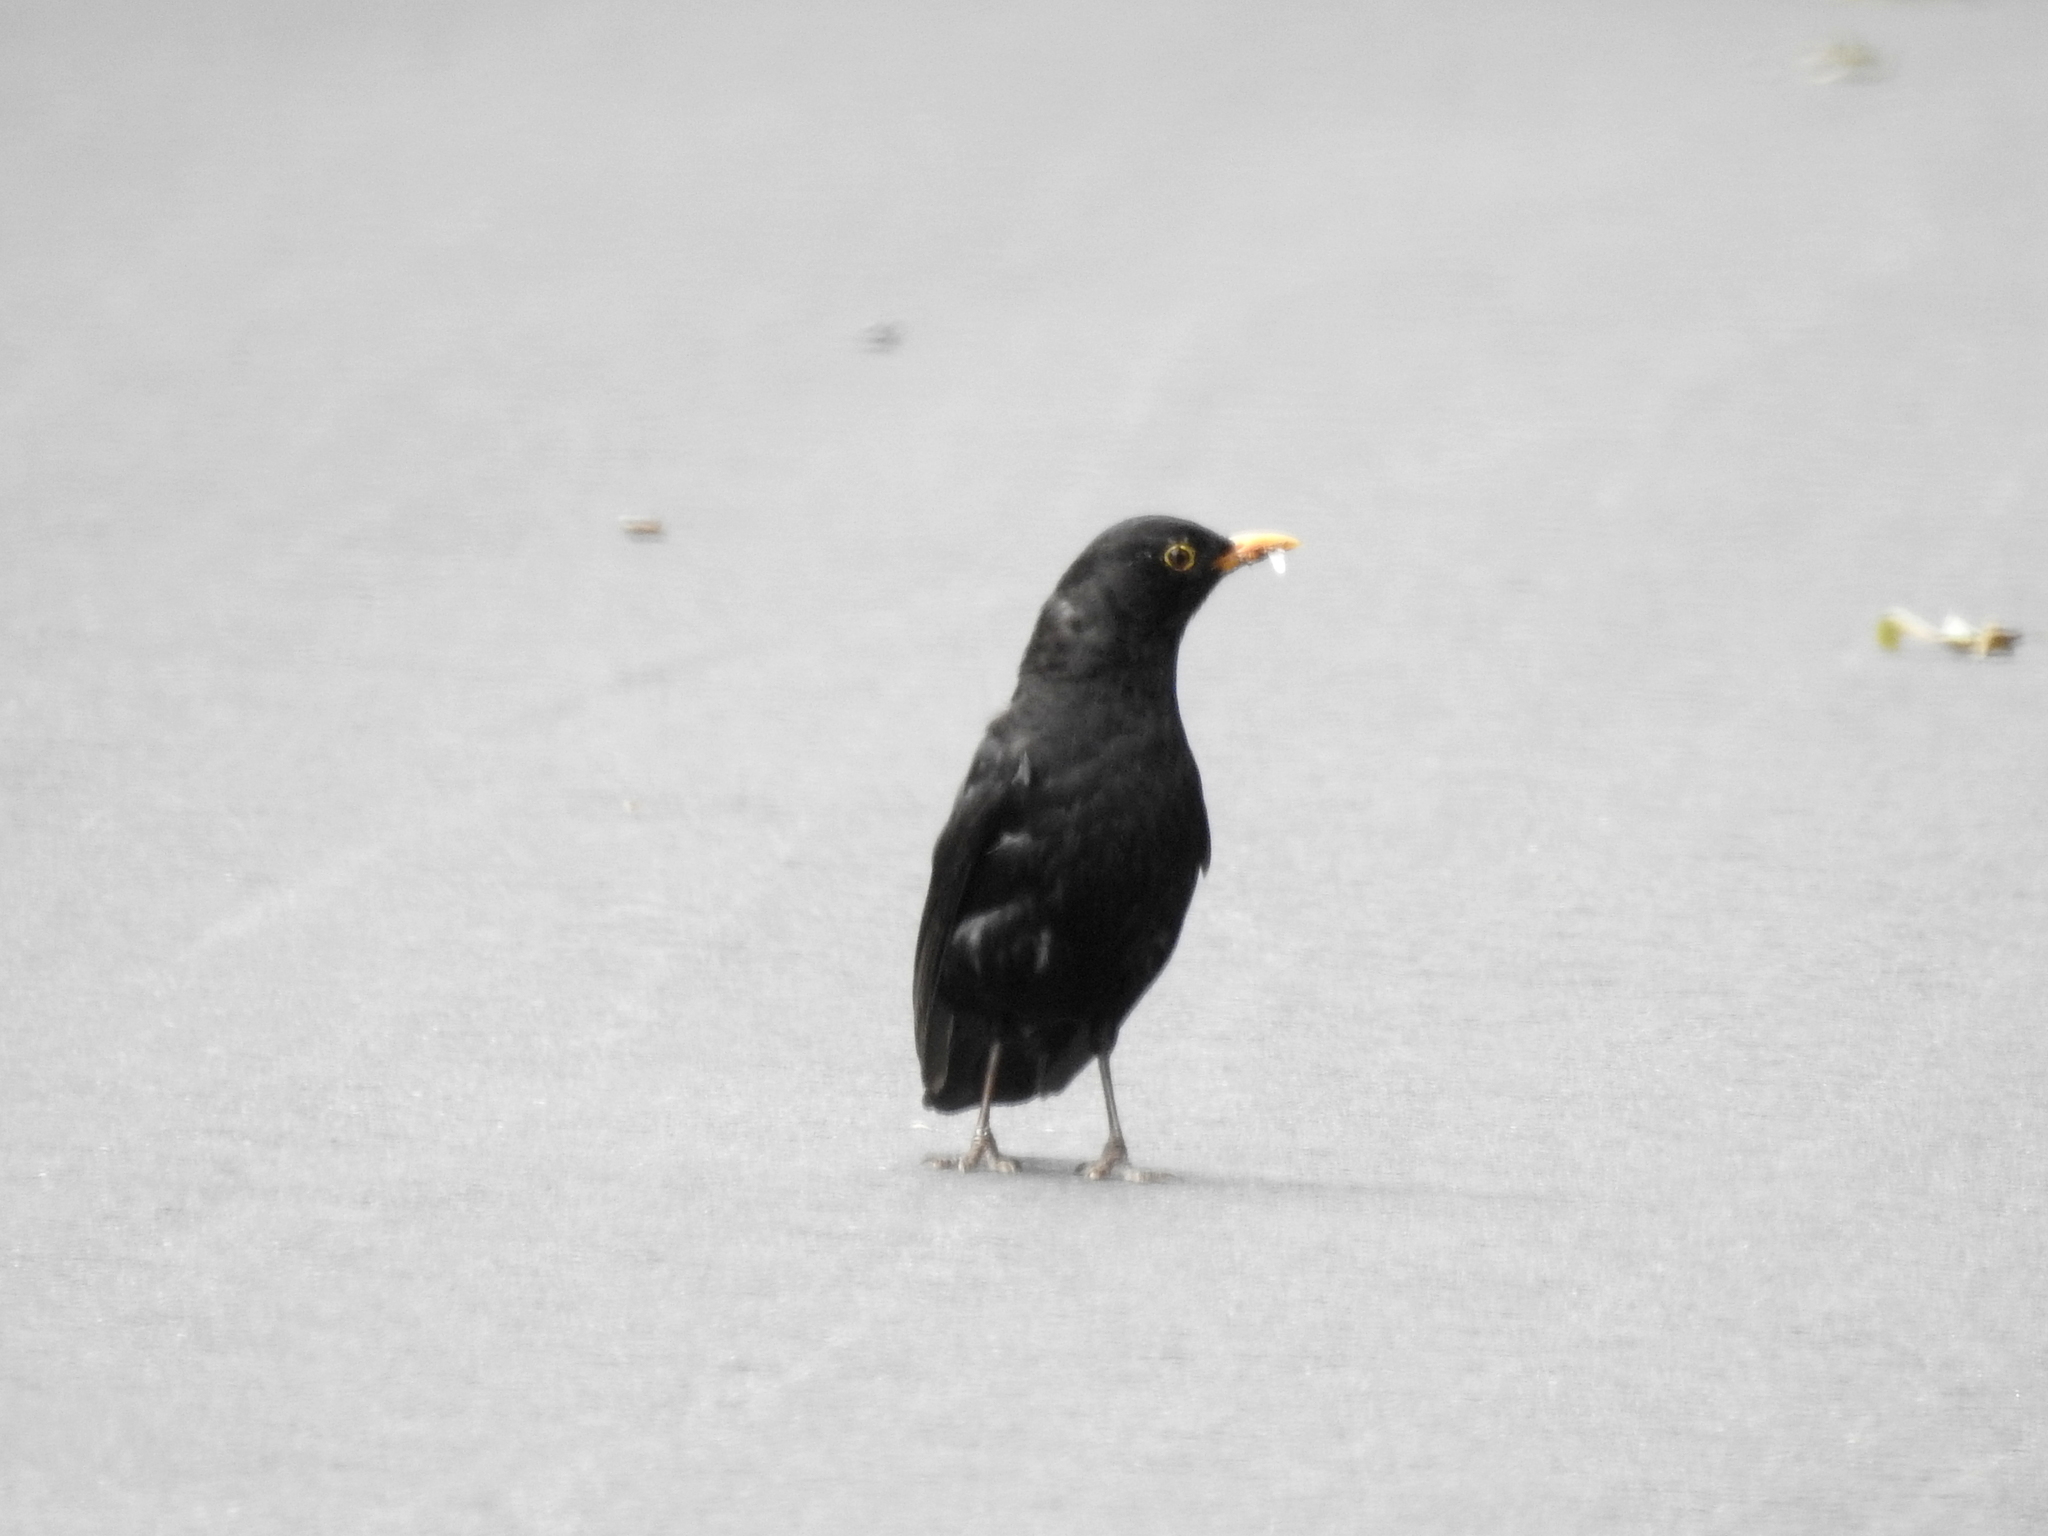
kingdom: Animalia
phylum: Chordata
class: Aves
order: Passeriformes
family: Turdidae
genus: Turdus
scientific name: Turdus merula
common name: Common blackbird
